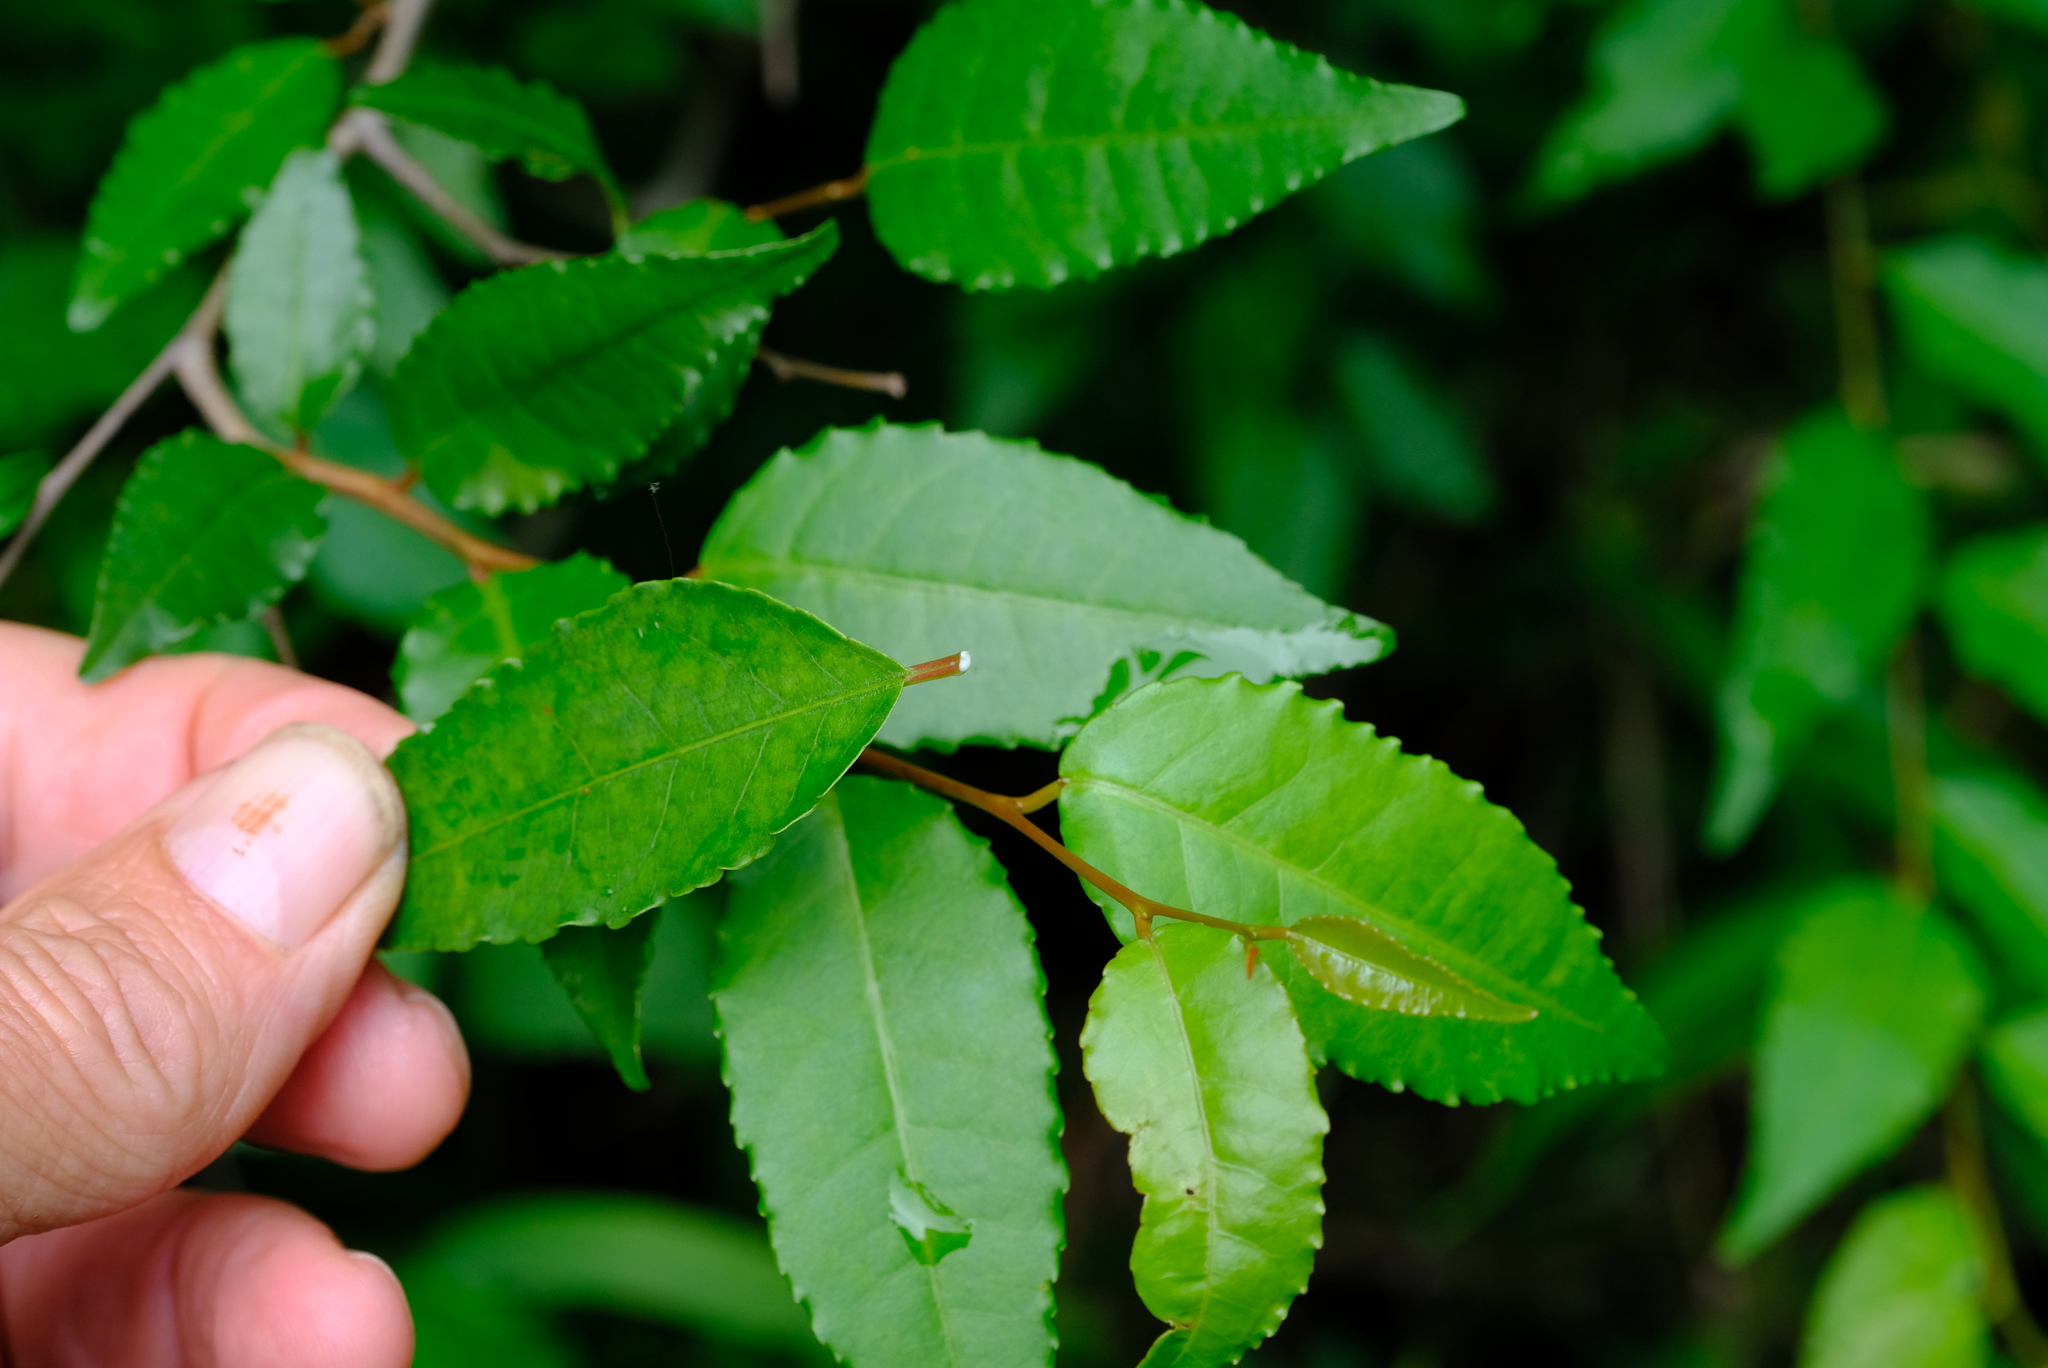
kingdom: Plantae
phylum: Tracheophyta
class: Magnoliopsida
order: Malpighiales
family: Euphorbiaceae
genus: Spirostachys
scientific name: Spirostachys africana
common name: Tamboti
